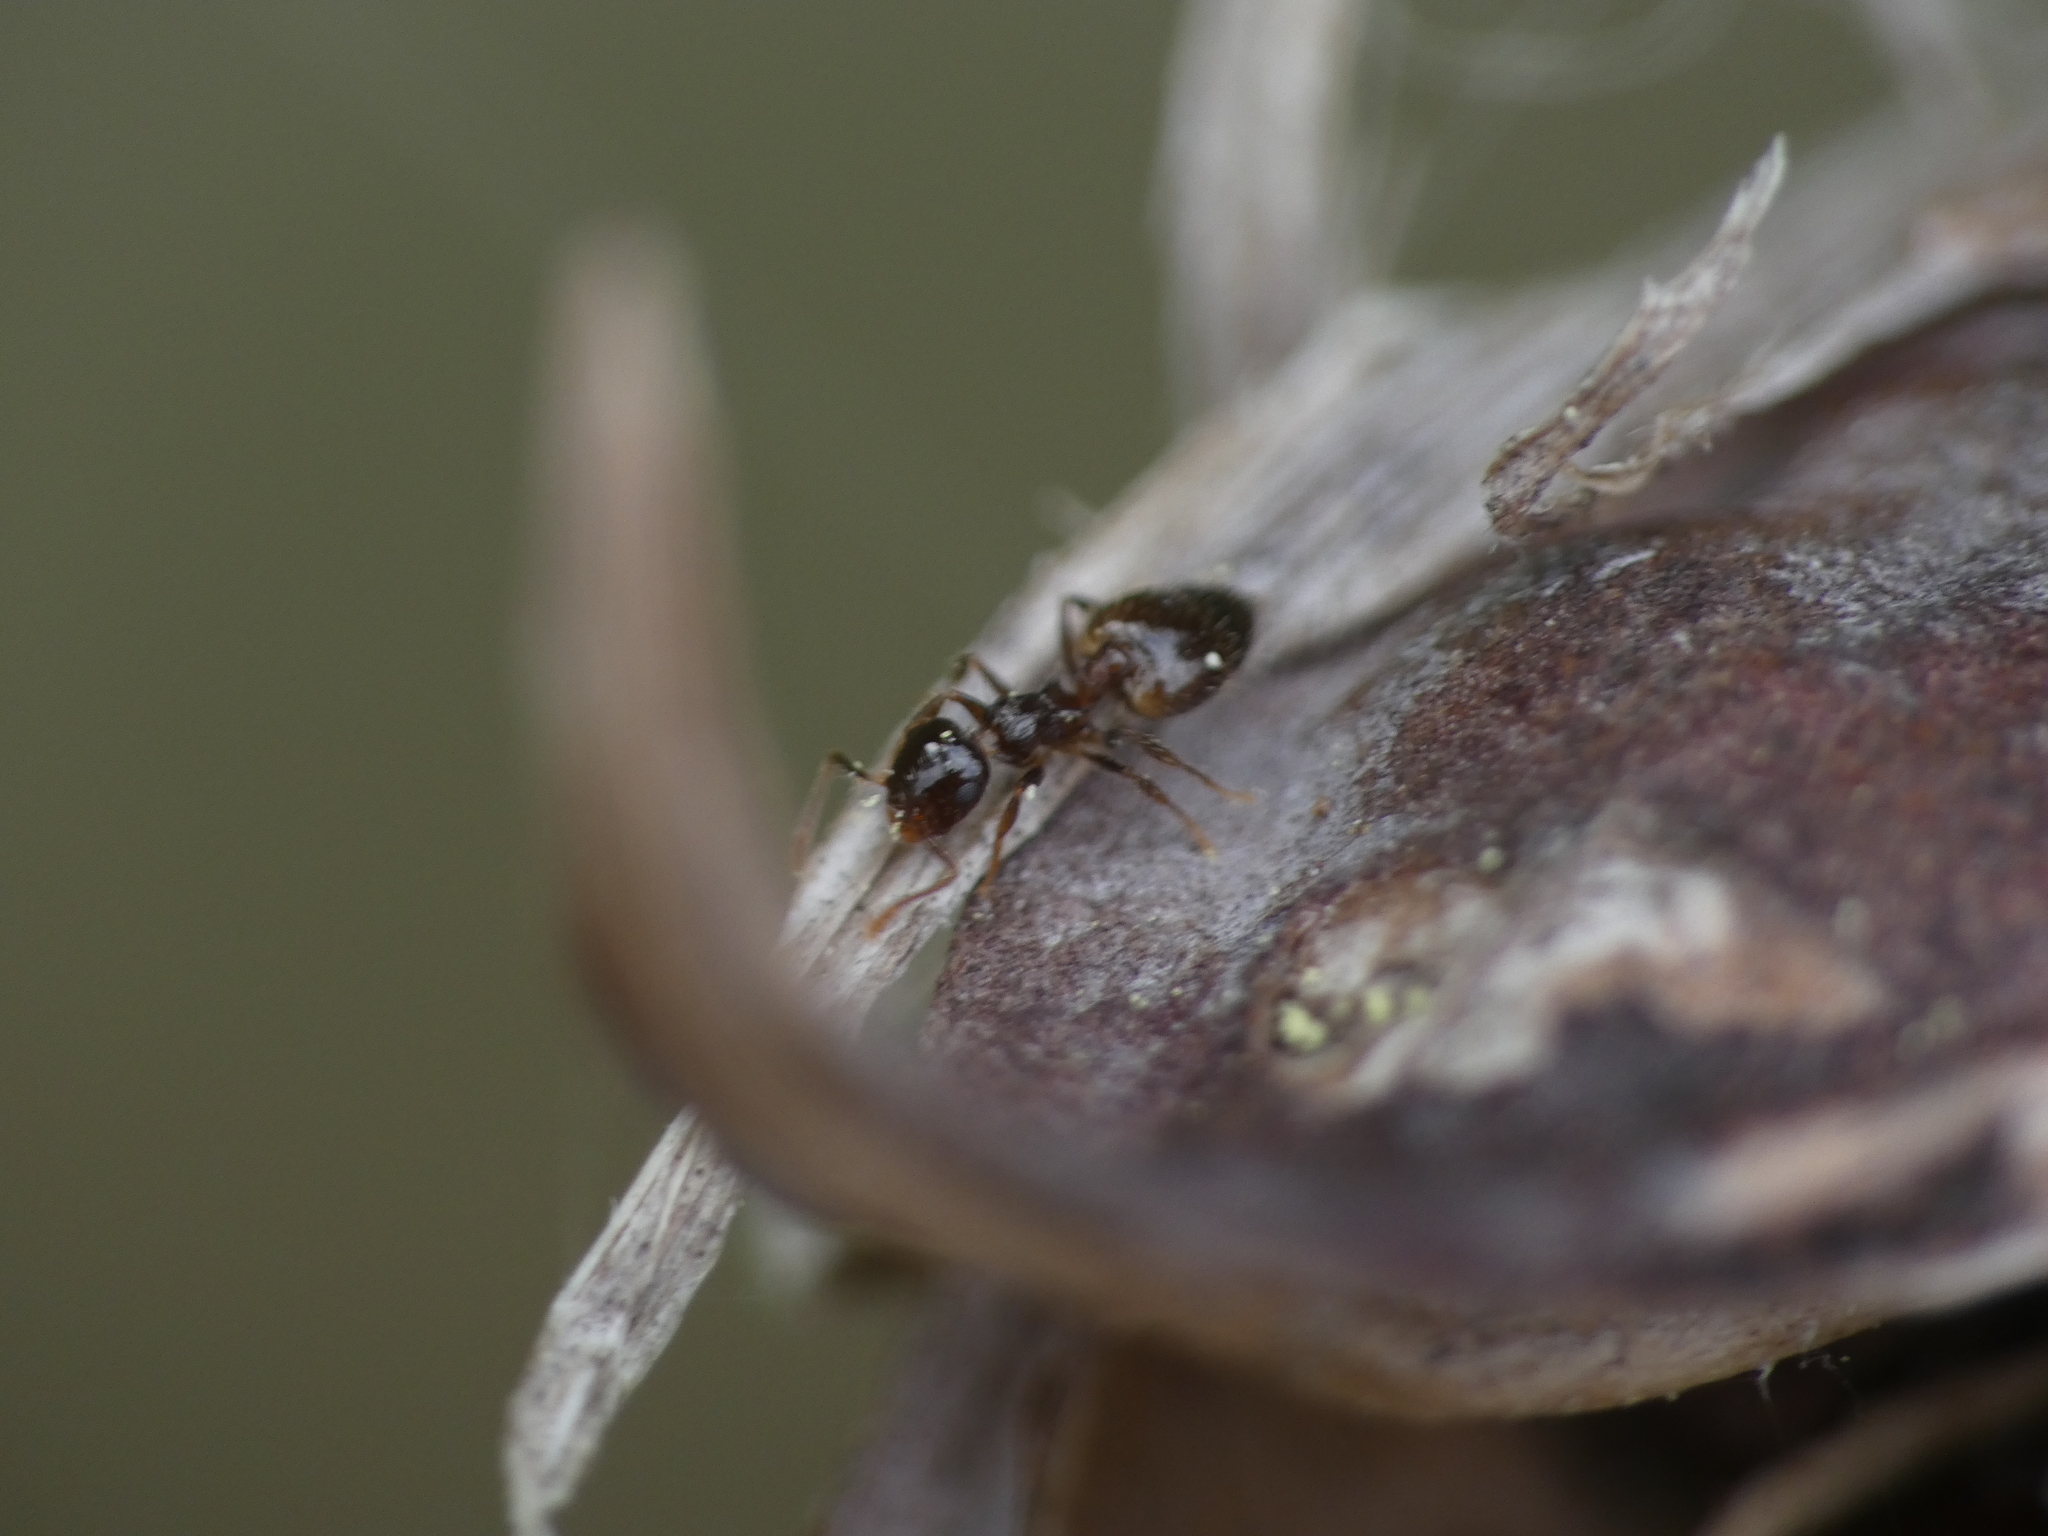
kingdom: Animalia
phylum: Arthropoda
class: Insecta
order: Hymenoptera
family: Formicidae
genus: Crematogaster
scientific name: Crematogaster sordidula
